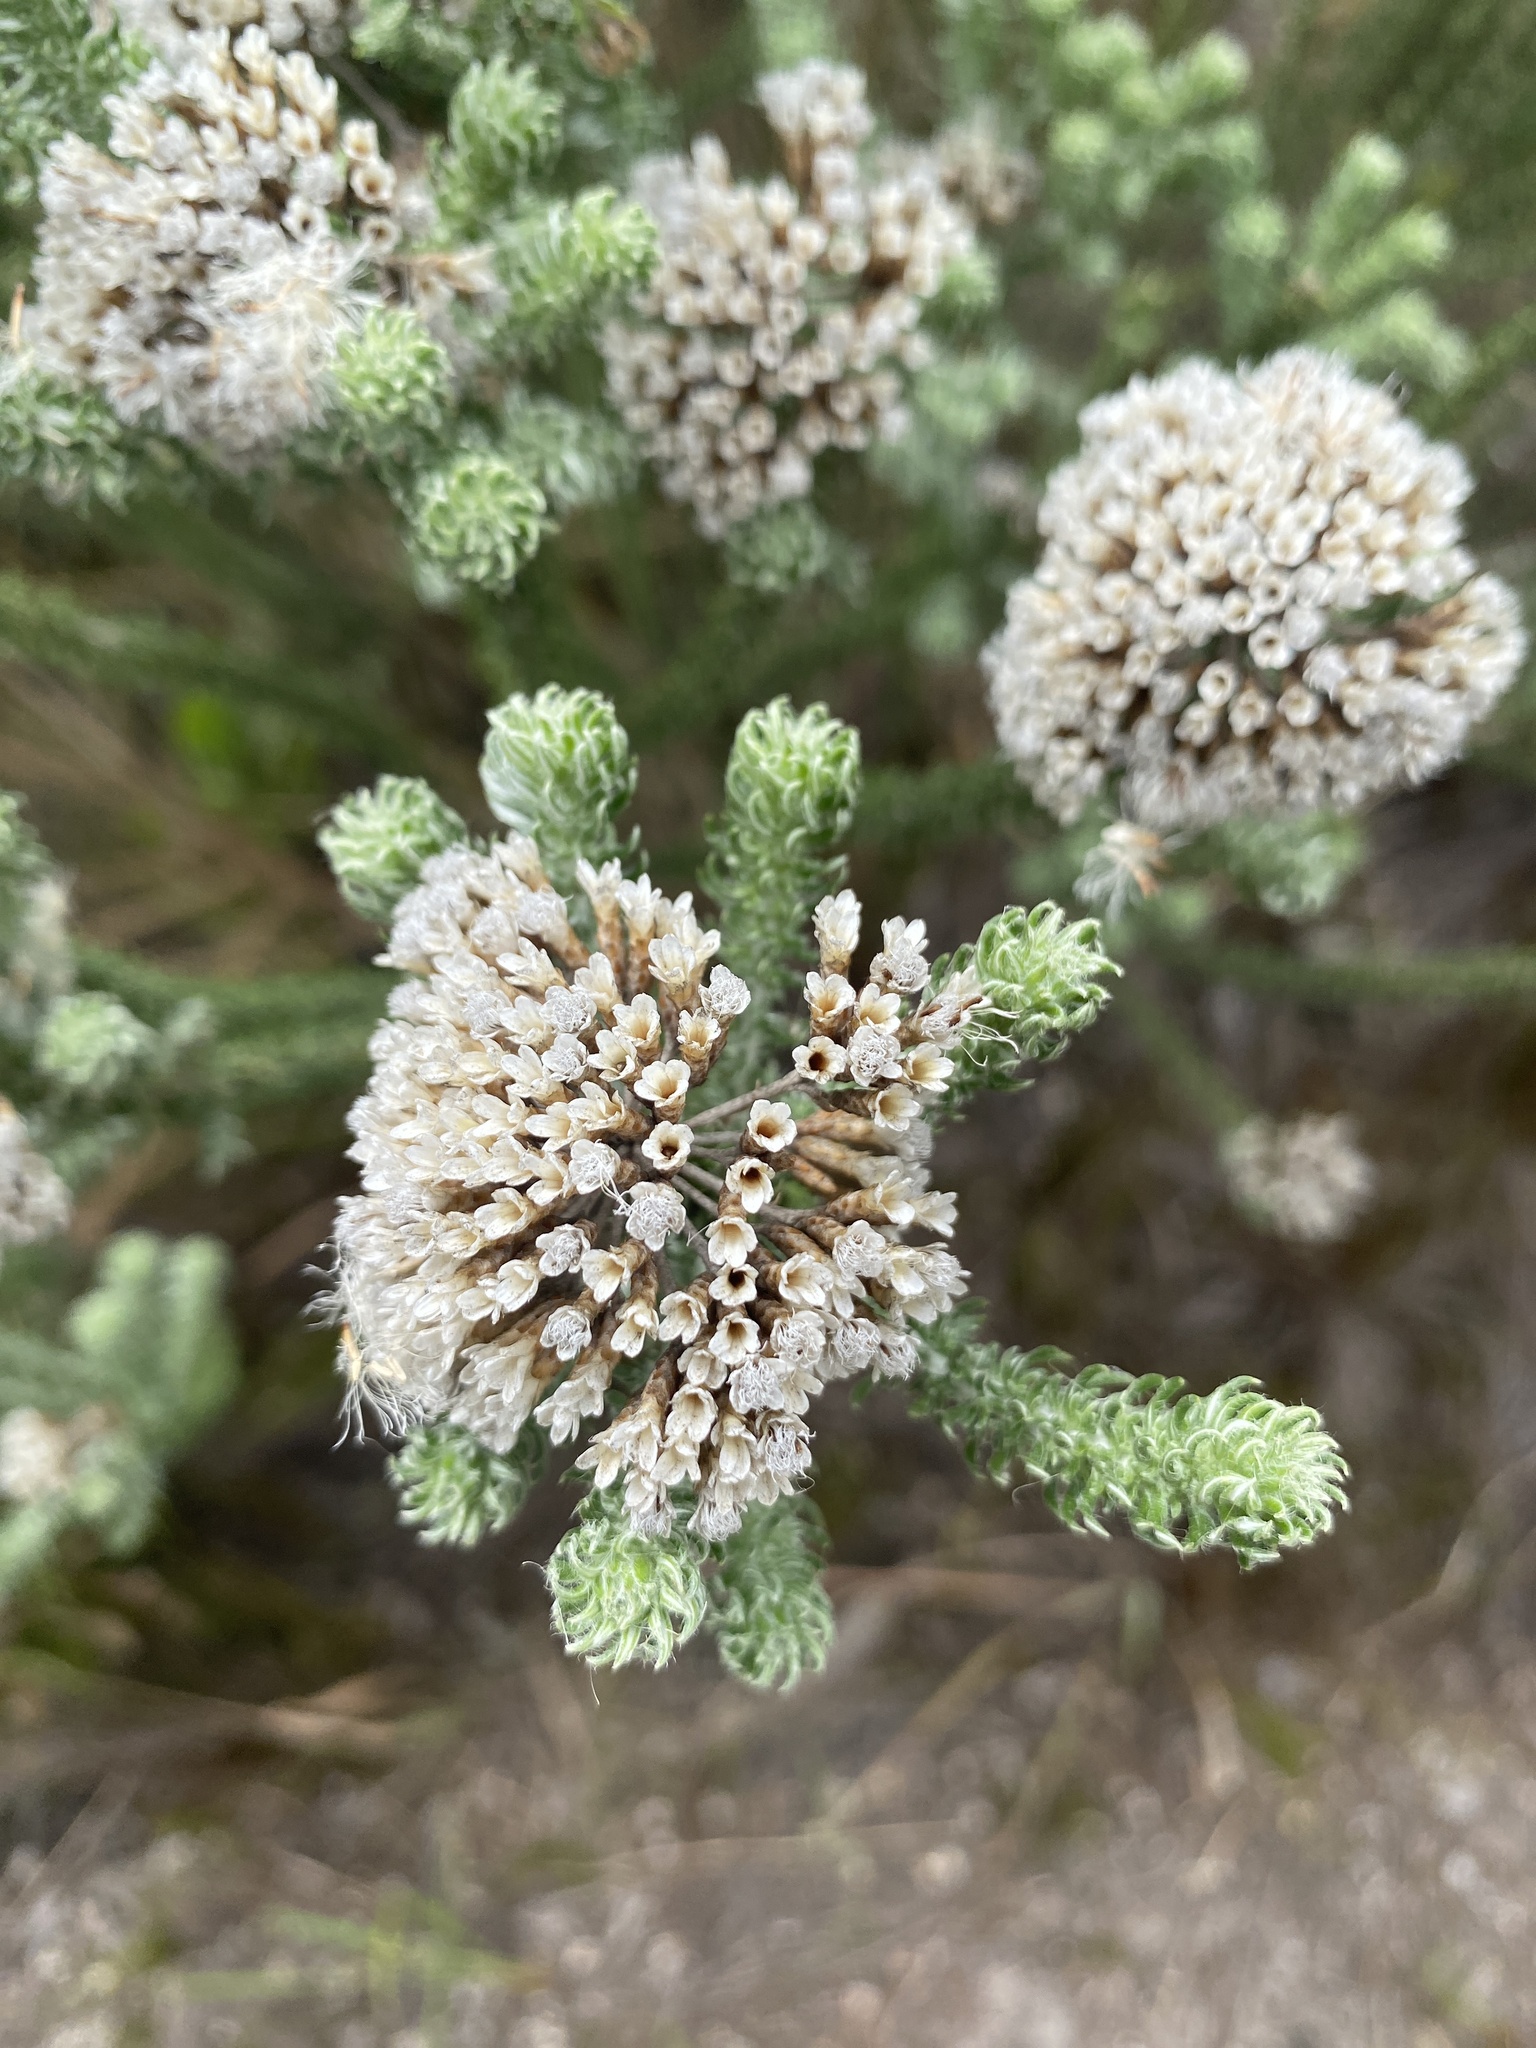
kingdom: Plantae
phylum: Tracheophyta
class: Magnoliopsida
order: Asterales
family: Asteraceae
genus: Metalasia
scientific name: Metalasia muricata
